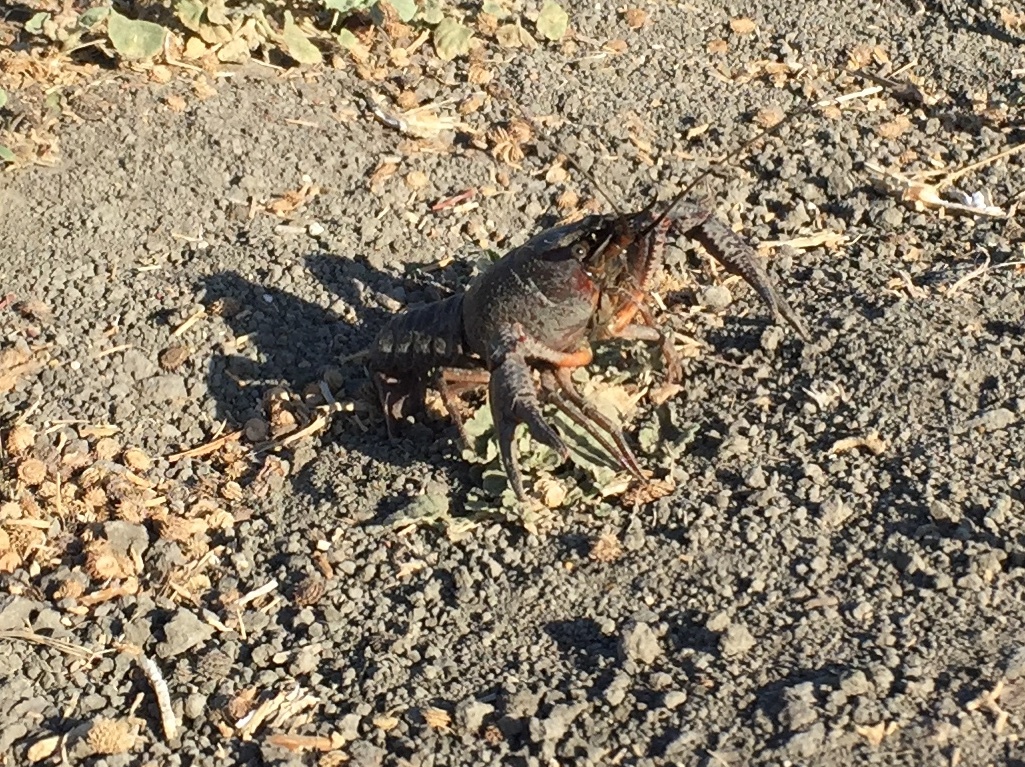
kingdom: Animalia
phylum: Arthropoda
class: Malacostraca
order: Decapoda
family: Cambaridae
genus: Procambarus
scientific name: Procambarus clarkii
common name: Red swamp crayfish
